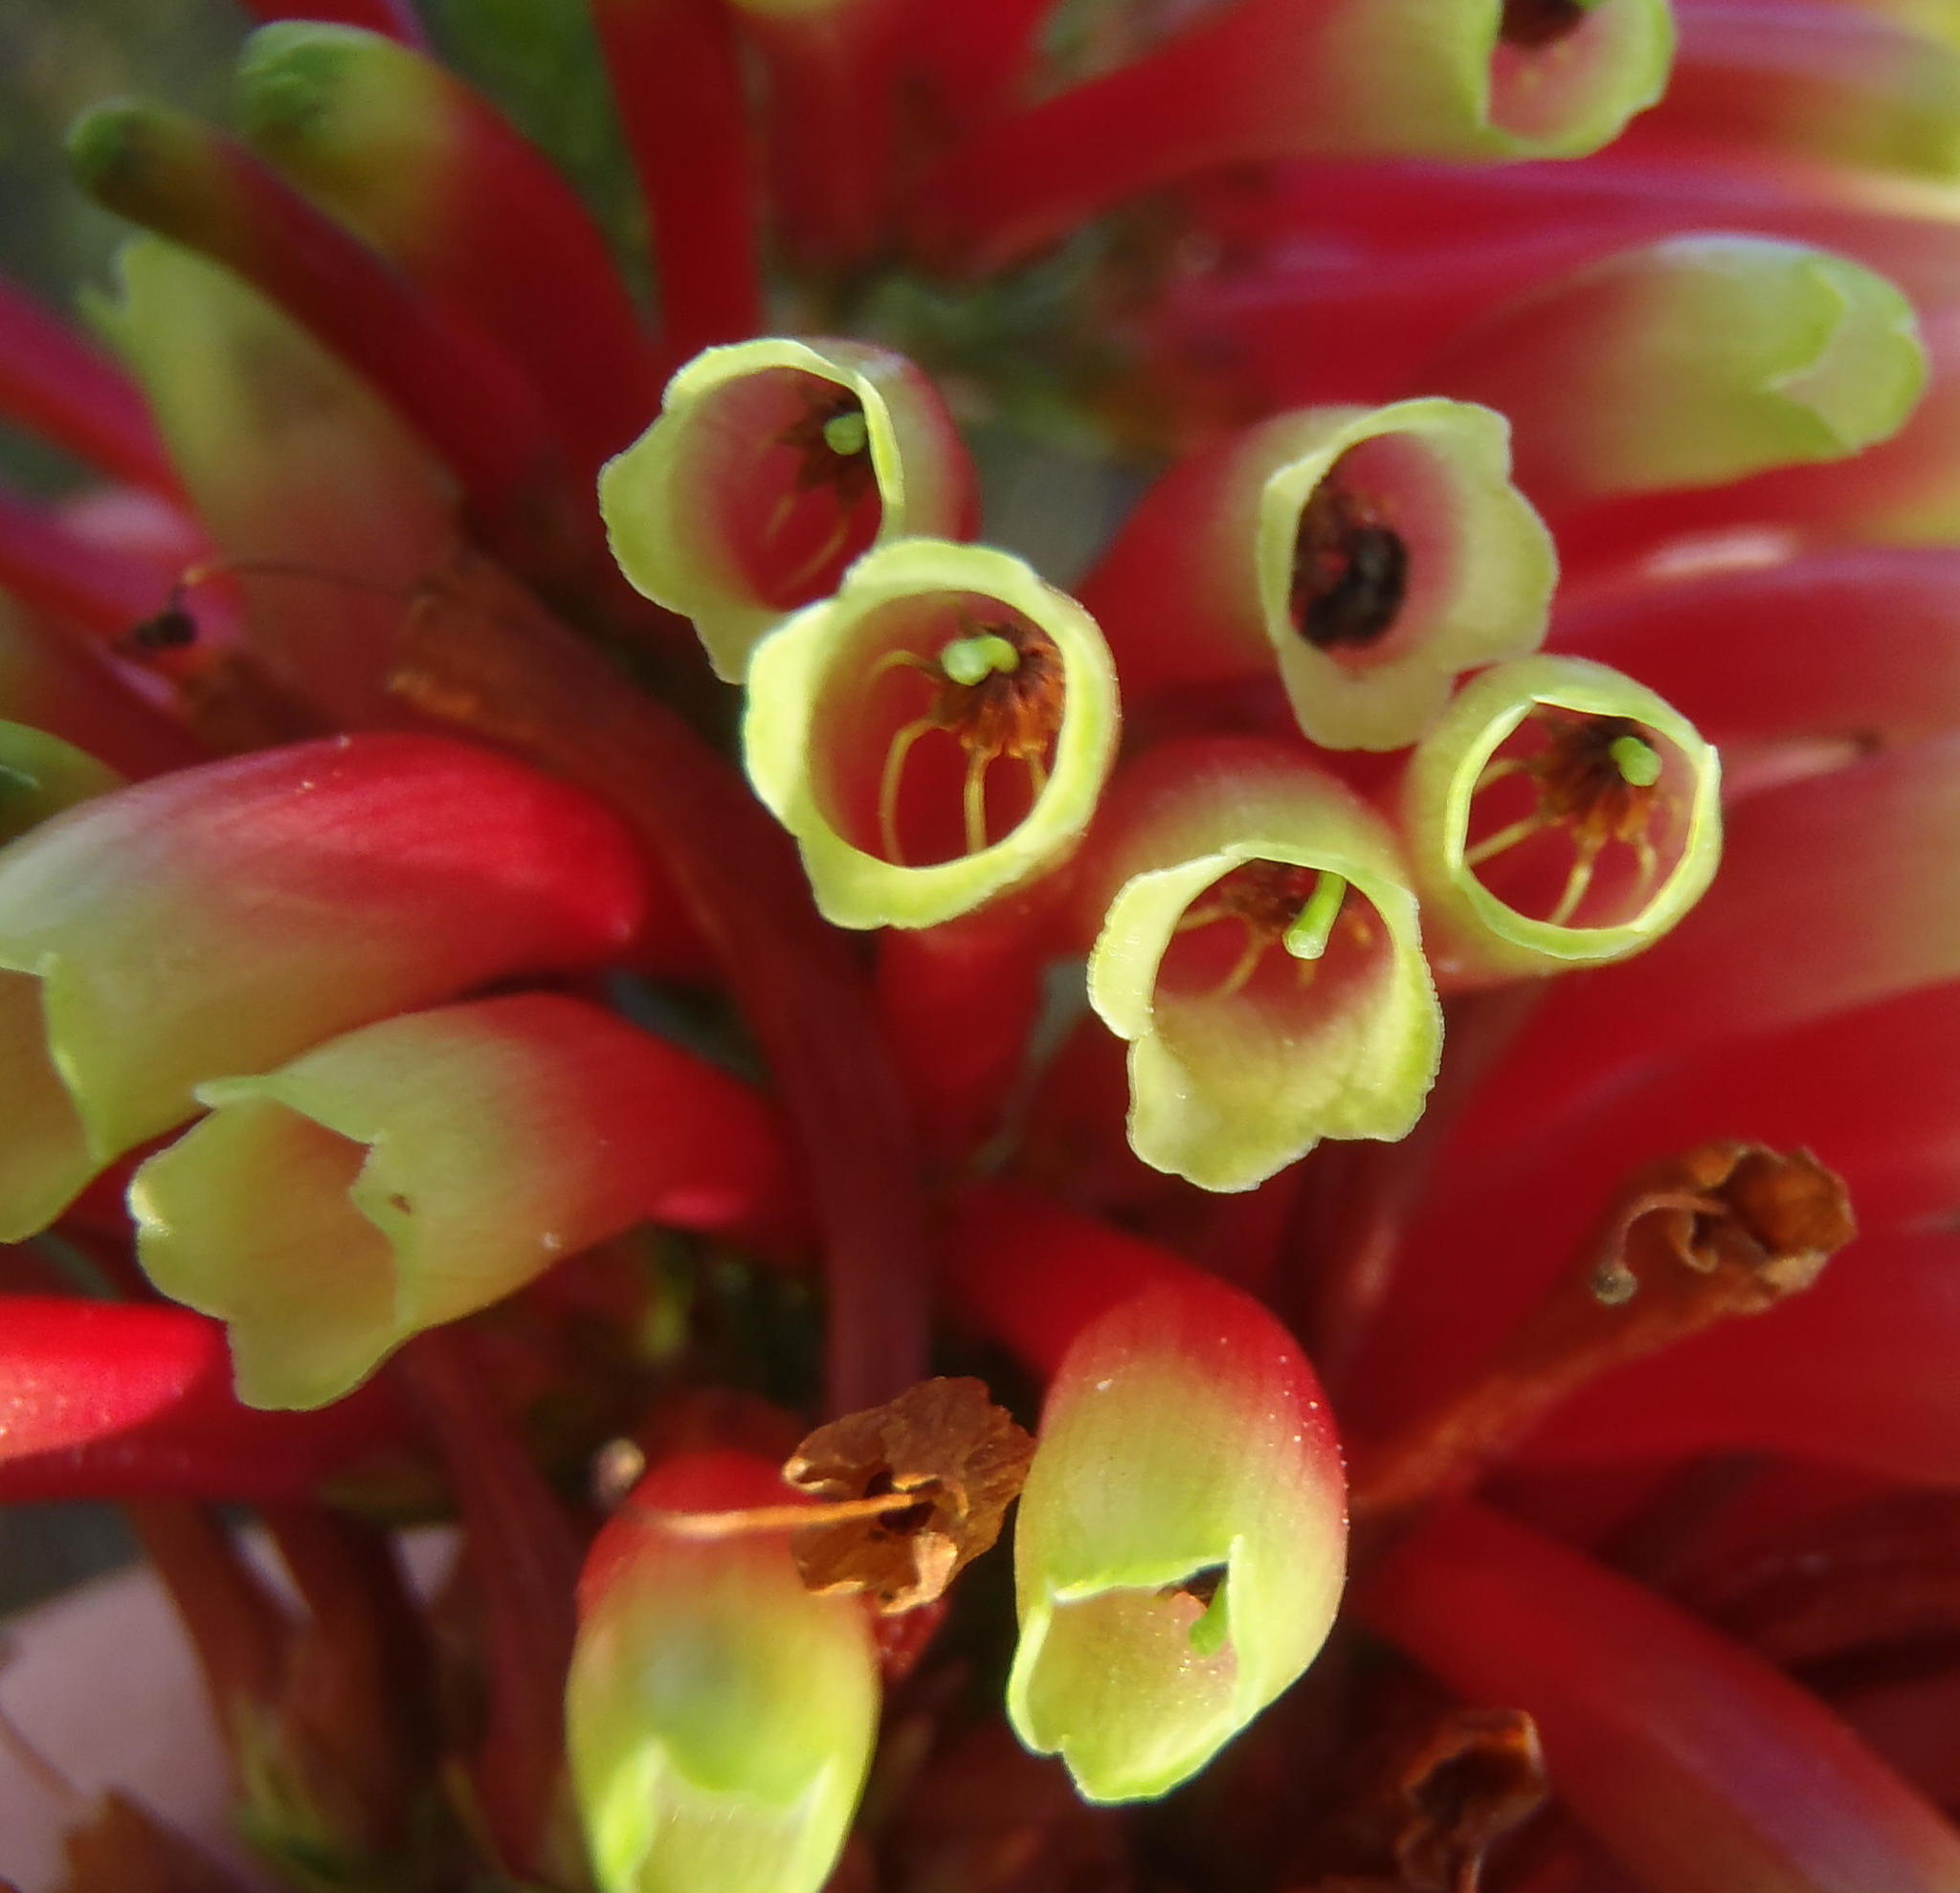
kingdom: Plantae
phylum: Tracheophyta
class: Magnoliopsida
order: Ericales
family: Ericaceae
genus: Erica
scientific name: Erica unicolor
